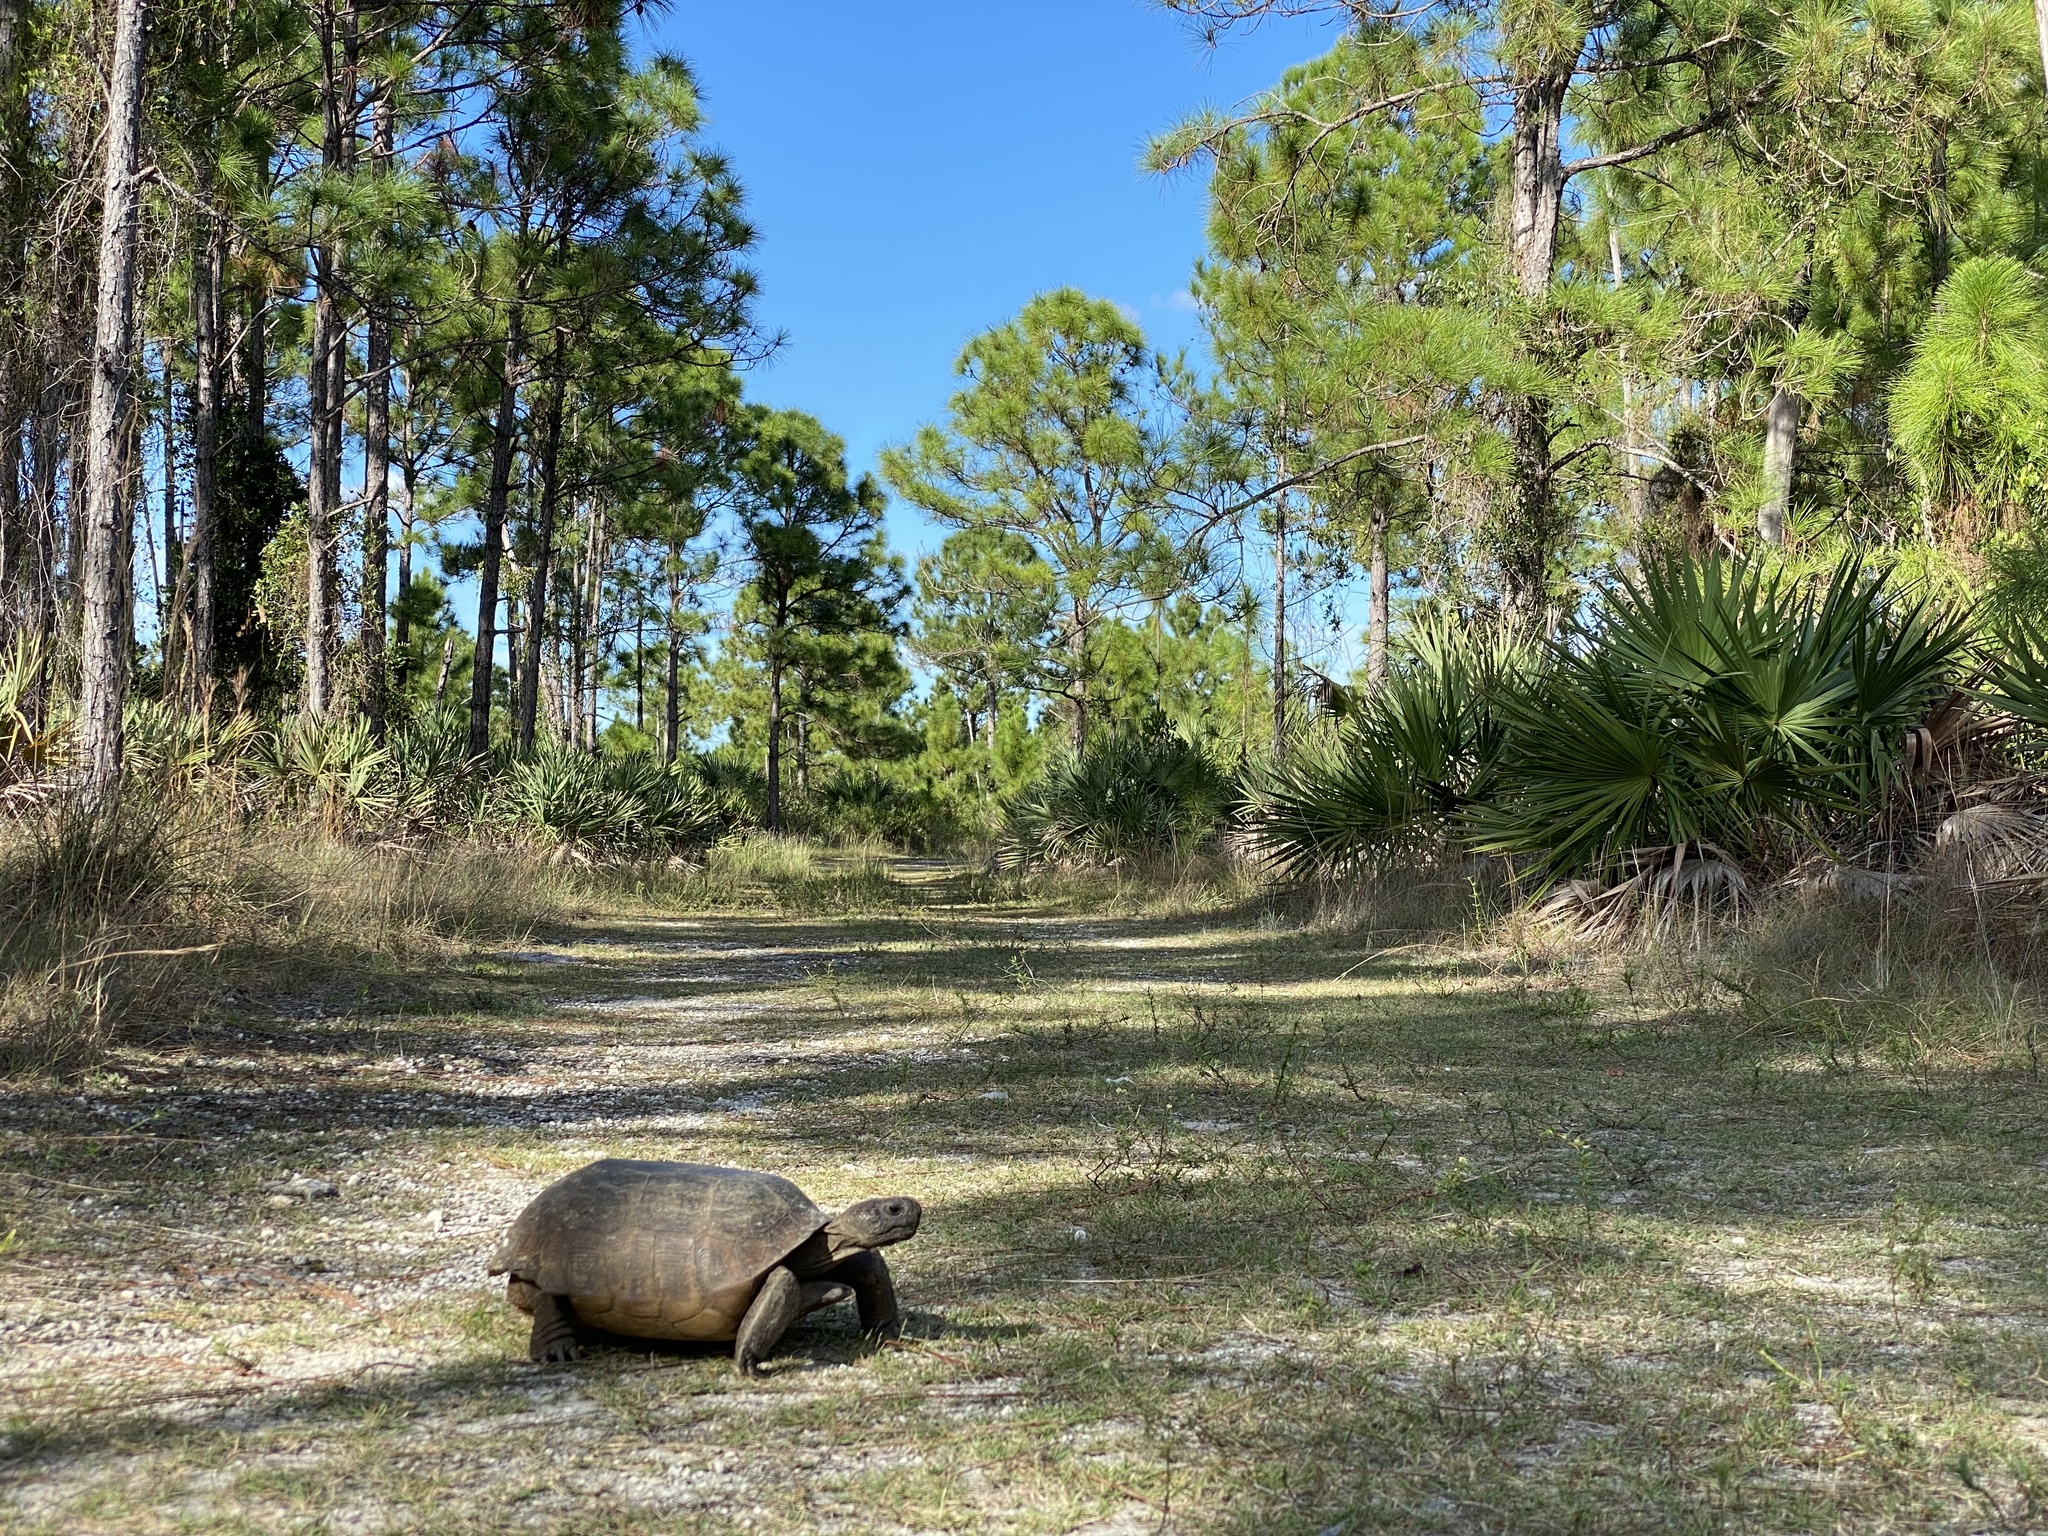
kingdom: Animalia
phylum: Chordata
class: Testudines
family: Testudinidae
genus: Gopherus
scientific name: Gopherus polyphemus
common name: Florida gopher tortoise
